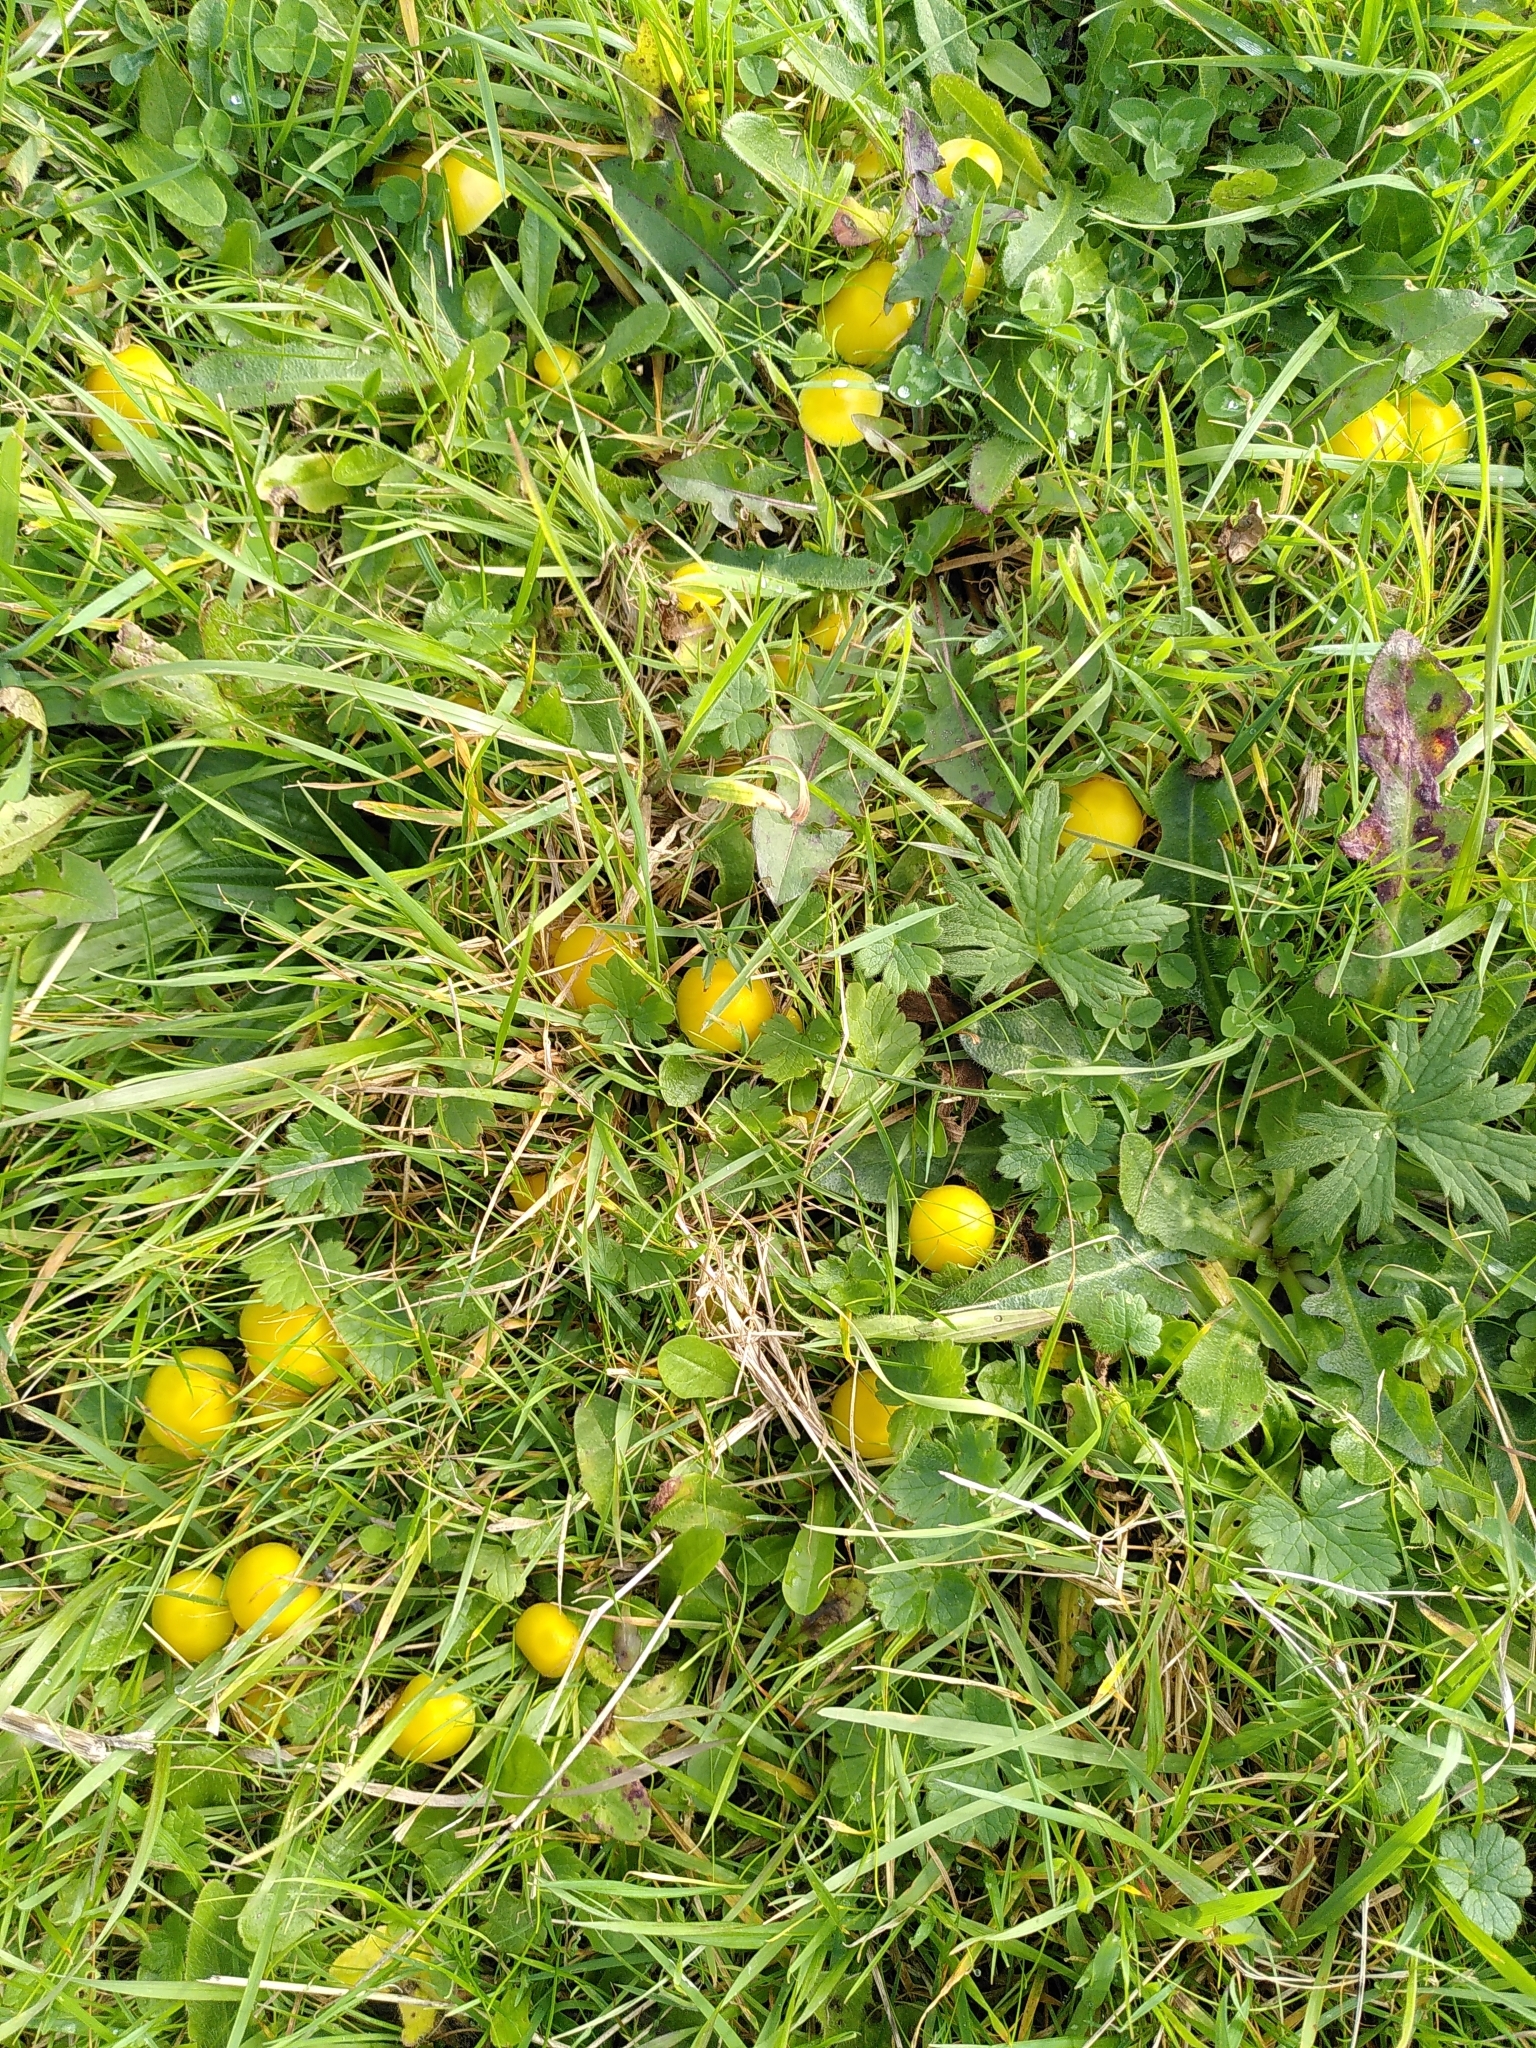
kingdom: Fungi
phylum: Basidiomycota
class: Agaricomycetes
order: Agaricales
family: Hygrophoraceae
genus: Hygrocybe
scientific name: Hygrocybe ceracea
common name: Butter waxcap
